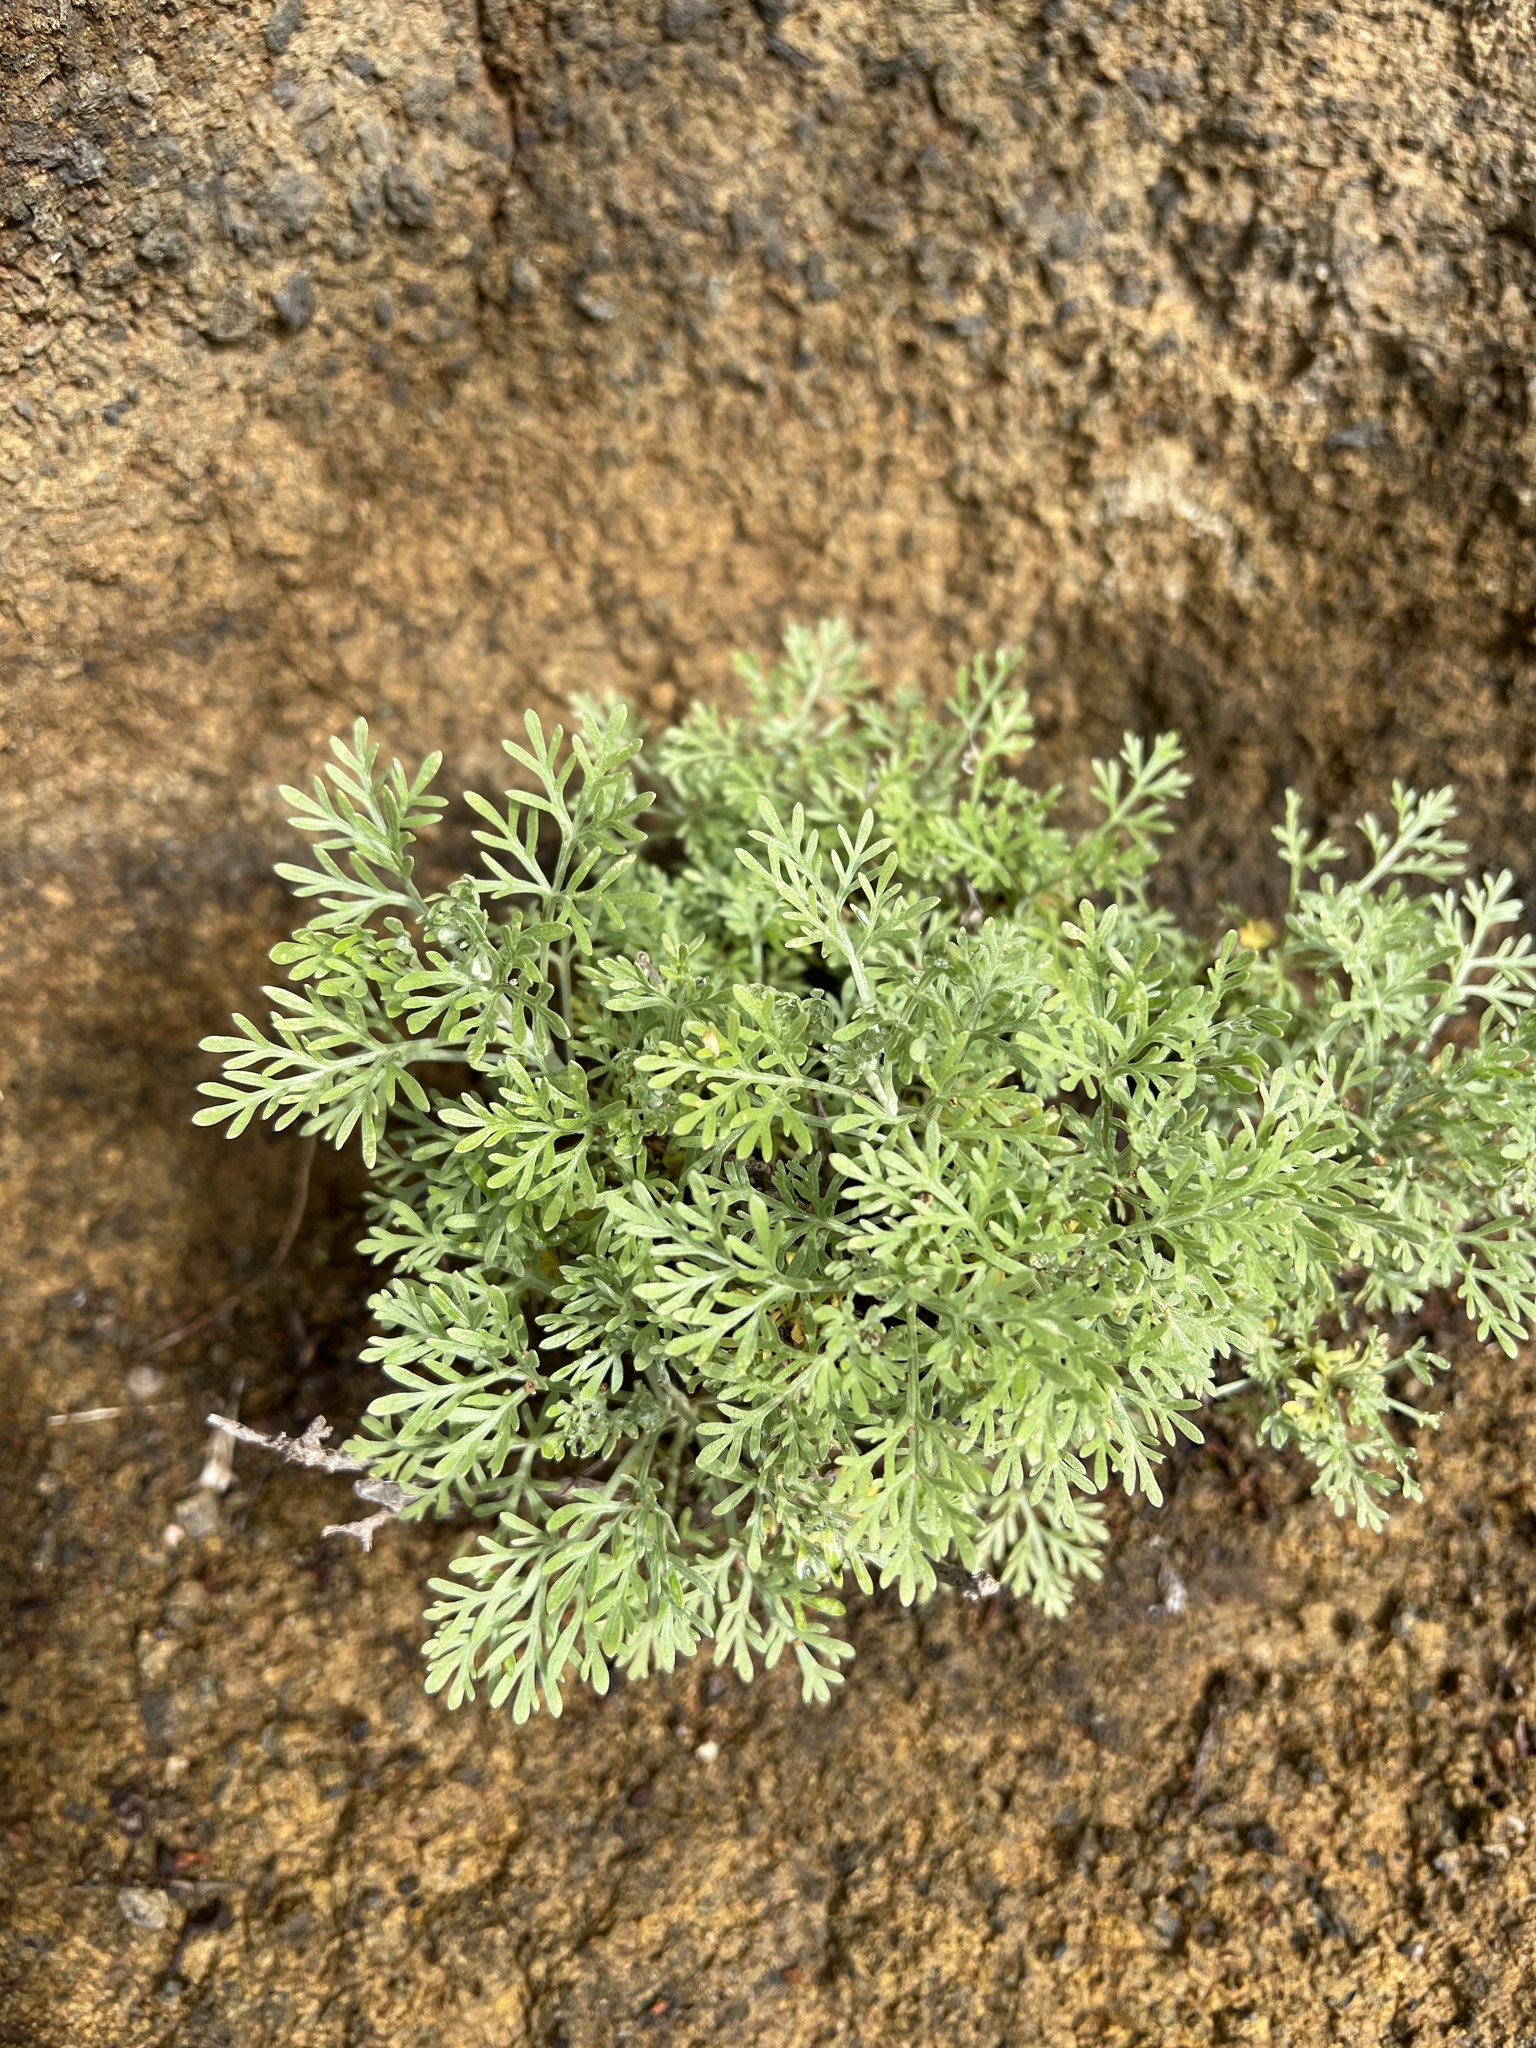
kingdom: Plantae
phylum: Tracheophyta
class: Magnoliopsida
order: Asterales
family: Asteraceae
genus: Artemisia
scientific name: Artemisia thuscula
